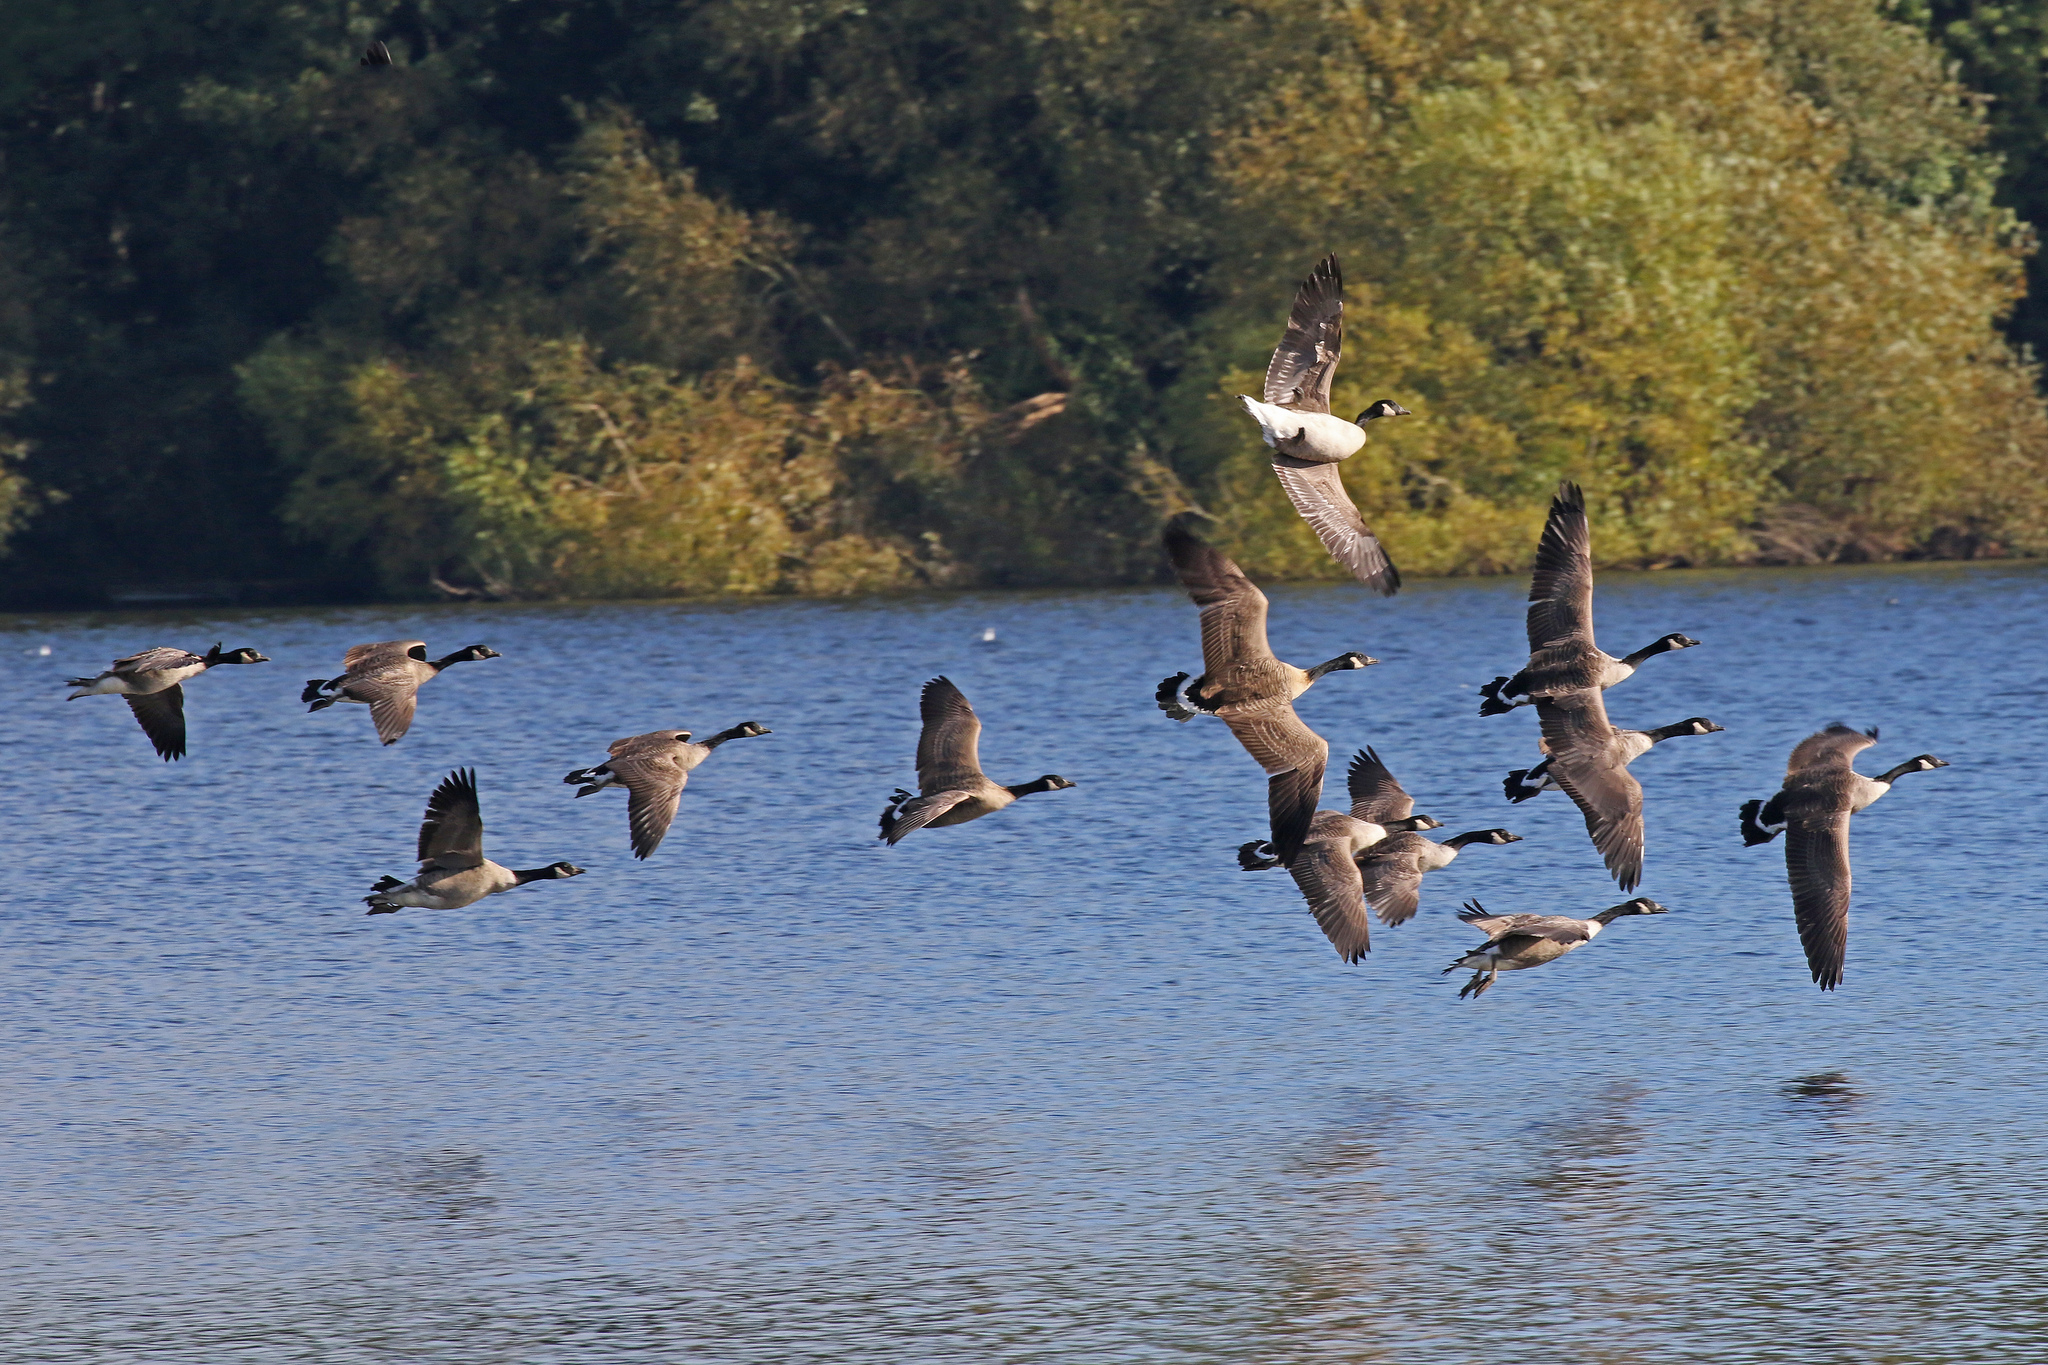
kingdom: Animalia
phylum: Chordata
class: Aves
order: Anseriformes
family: Anatidae
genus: Branta
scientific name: Branta canadensis
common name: Canada goose
